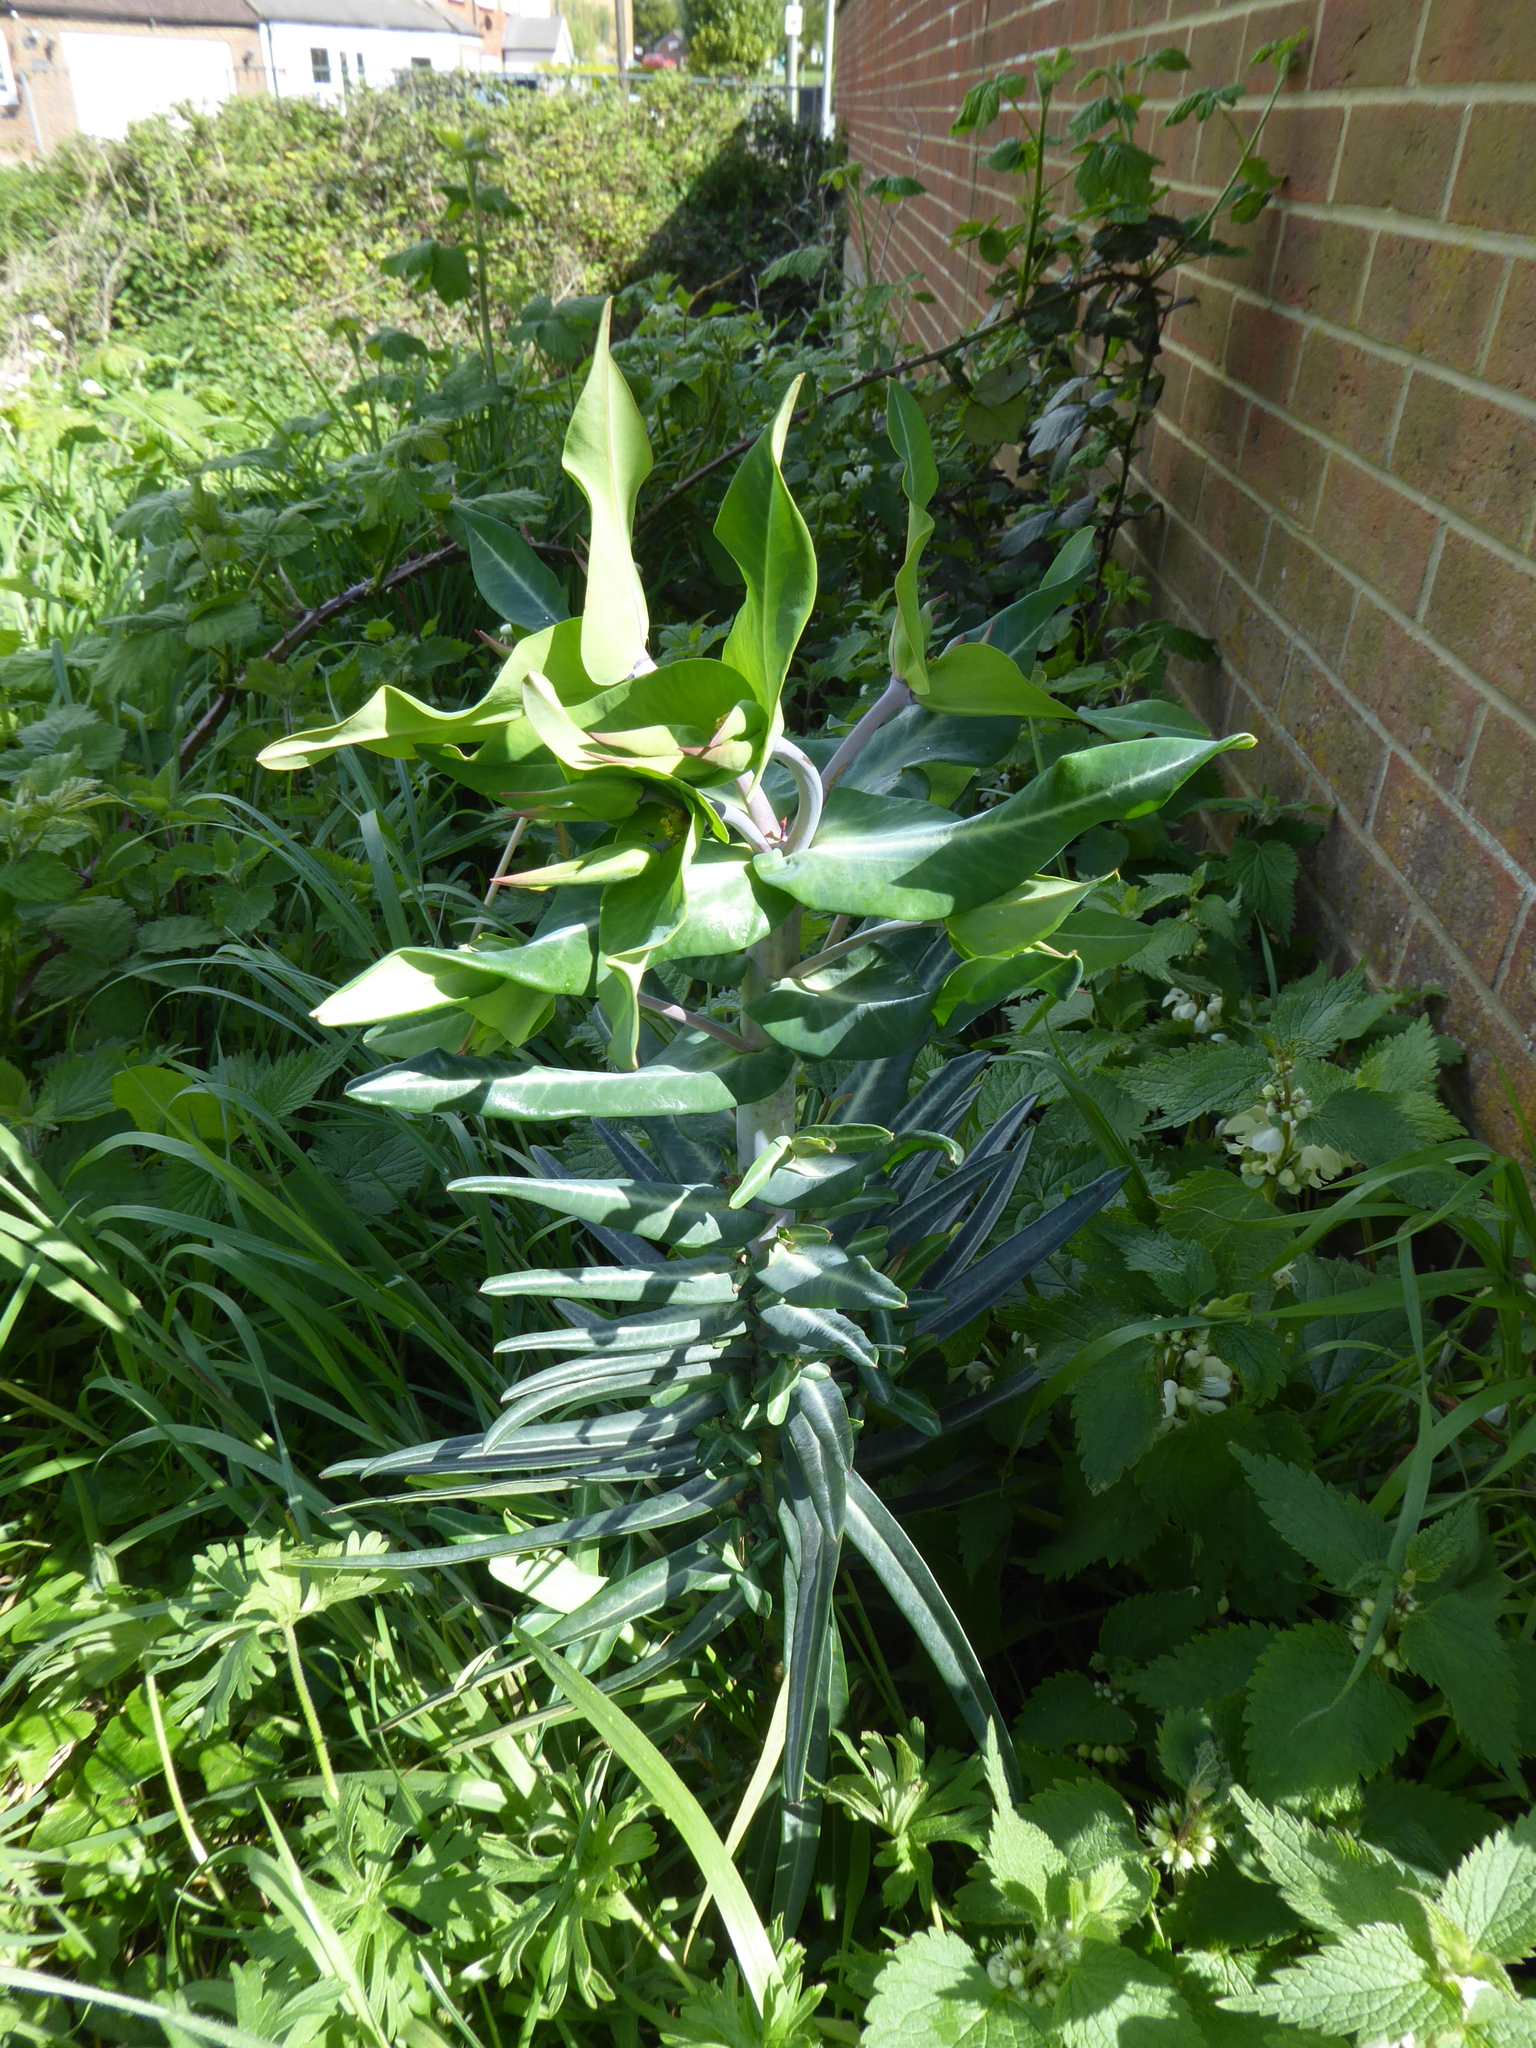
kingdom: Plantae
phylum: Tracheophyta
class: Magnoliopsida
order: Malpighiales
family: Euphorbiaceae
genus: Euphorbia
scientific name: Euphorbia lathyris
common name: Caper spurge
